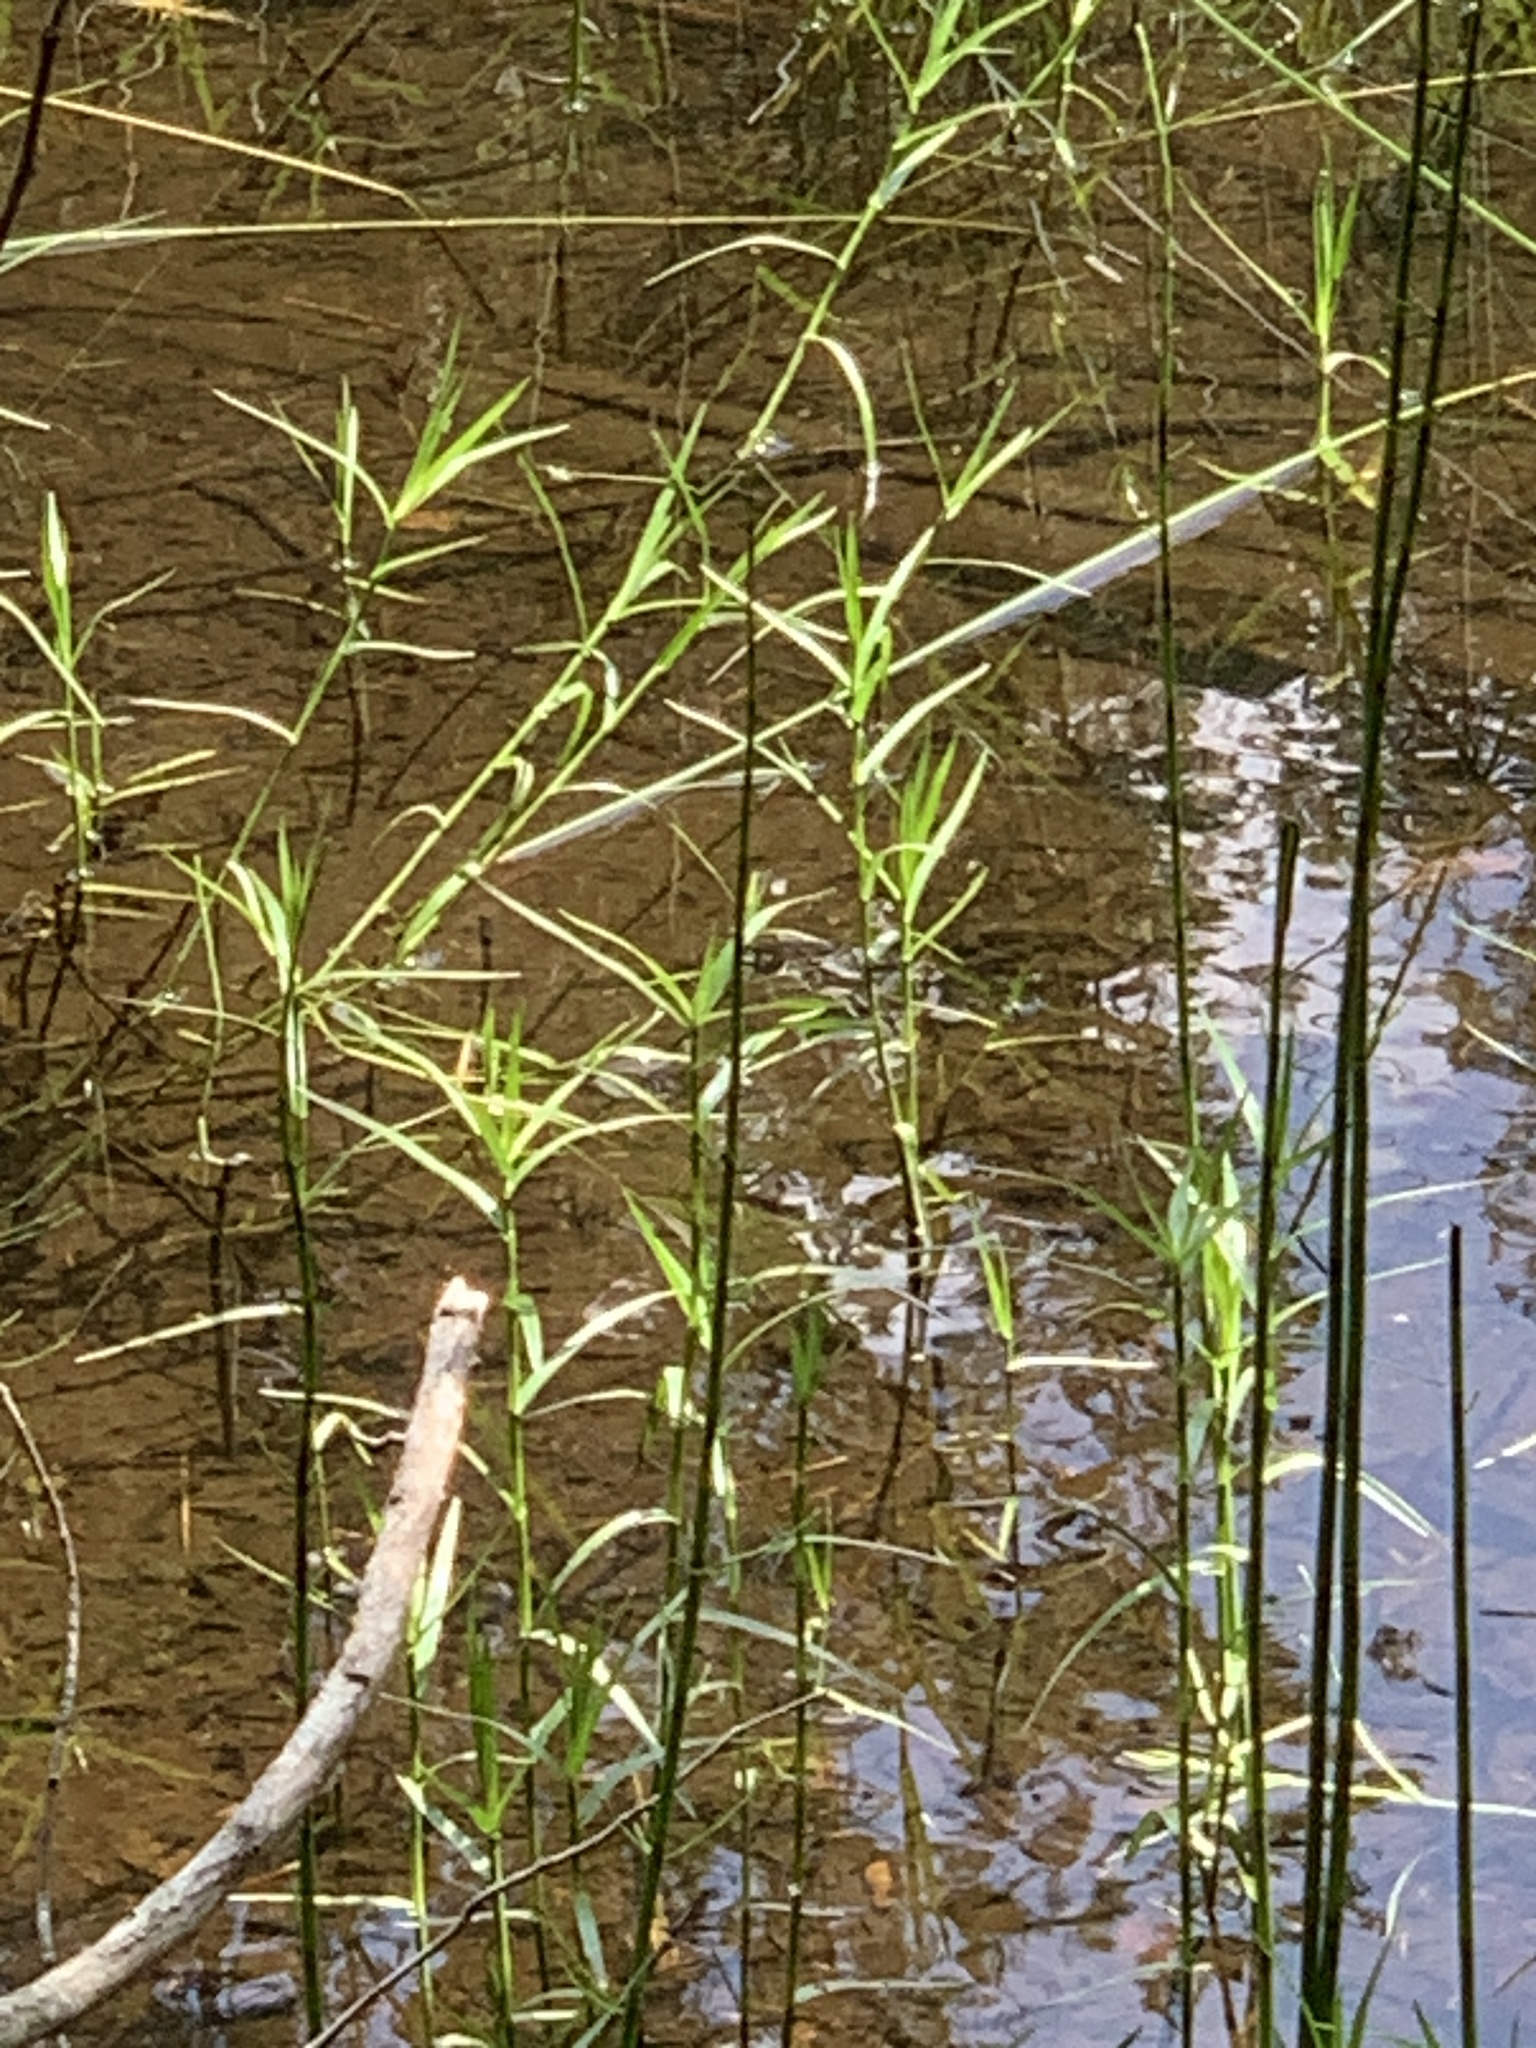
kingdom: Plantae
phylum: Tracheophyta
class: Liliopsida
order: Poales
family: Cyperaceae
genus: Dulichium
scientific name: Dulichium arundinaceum
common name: Three-way sedge
